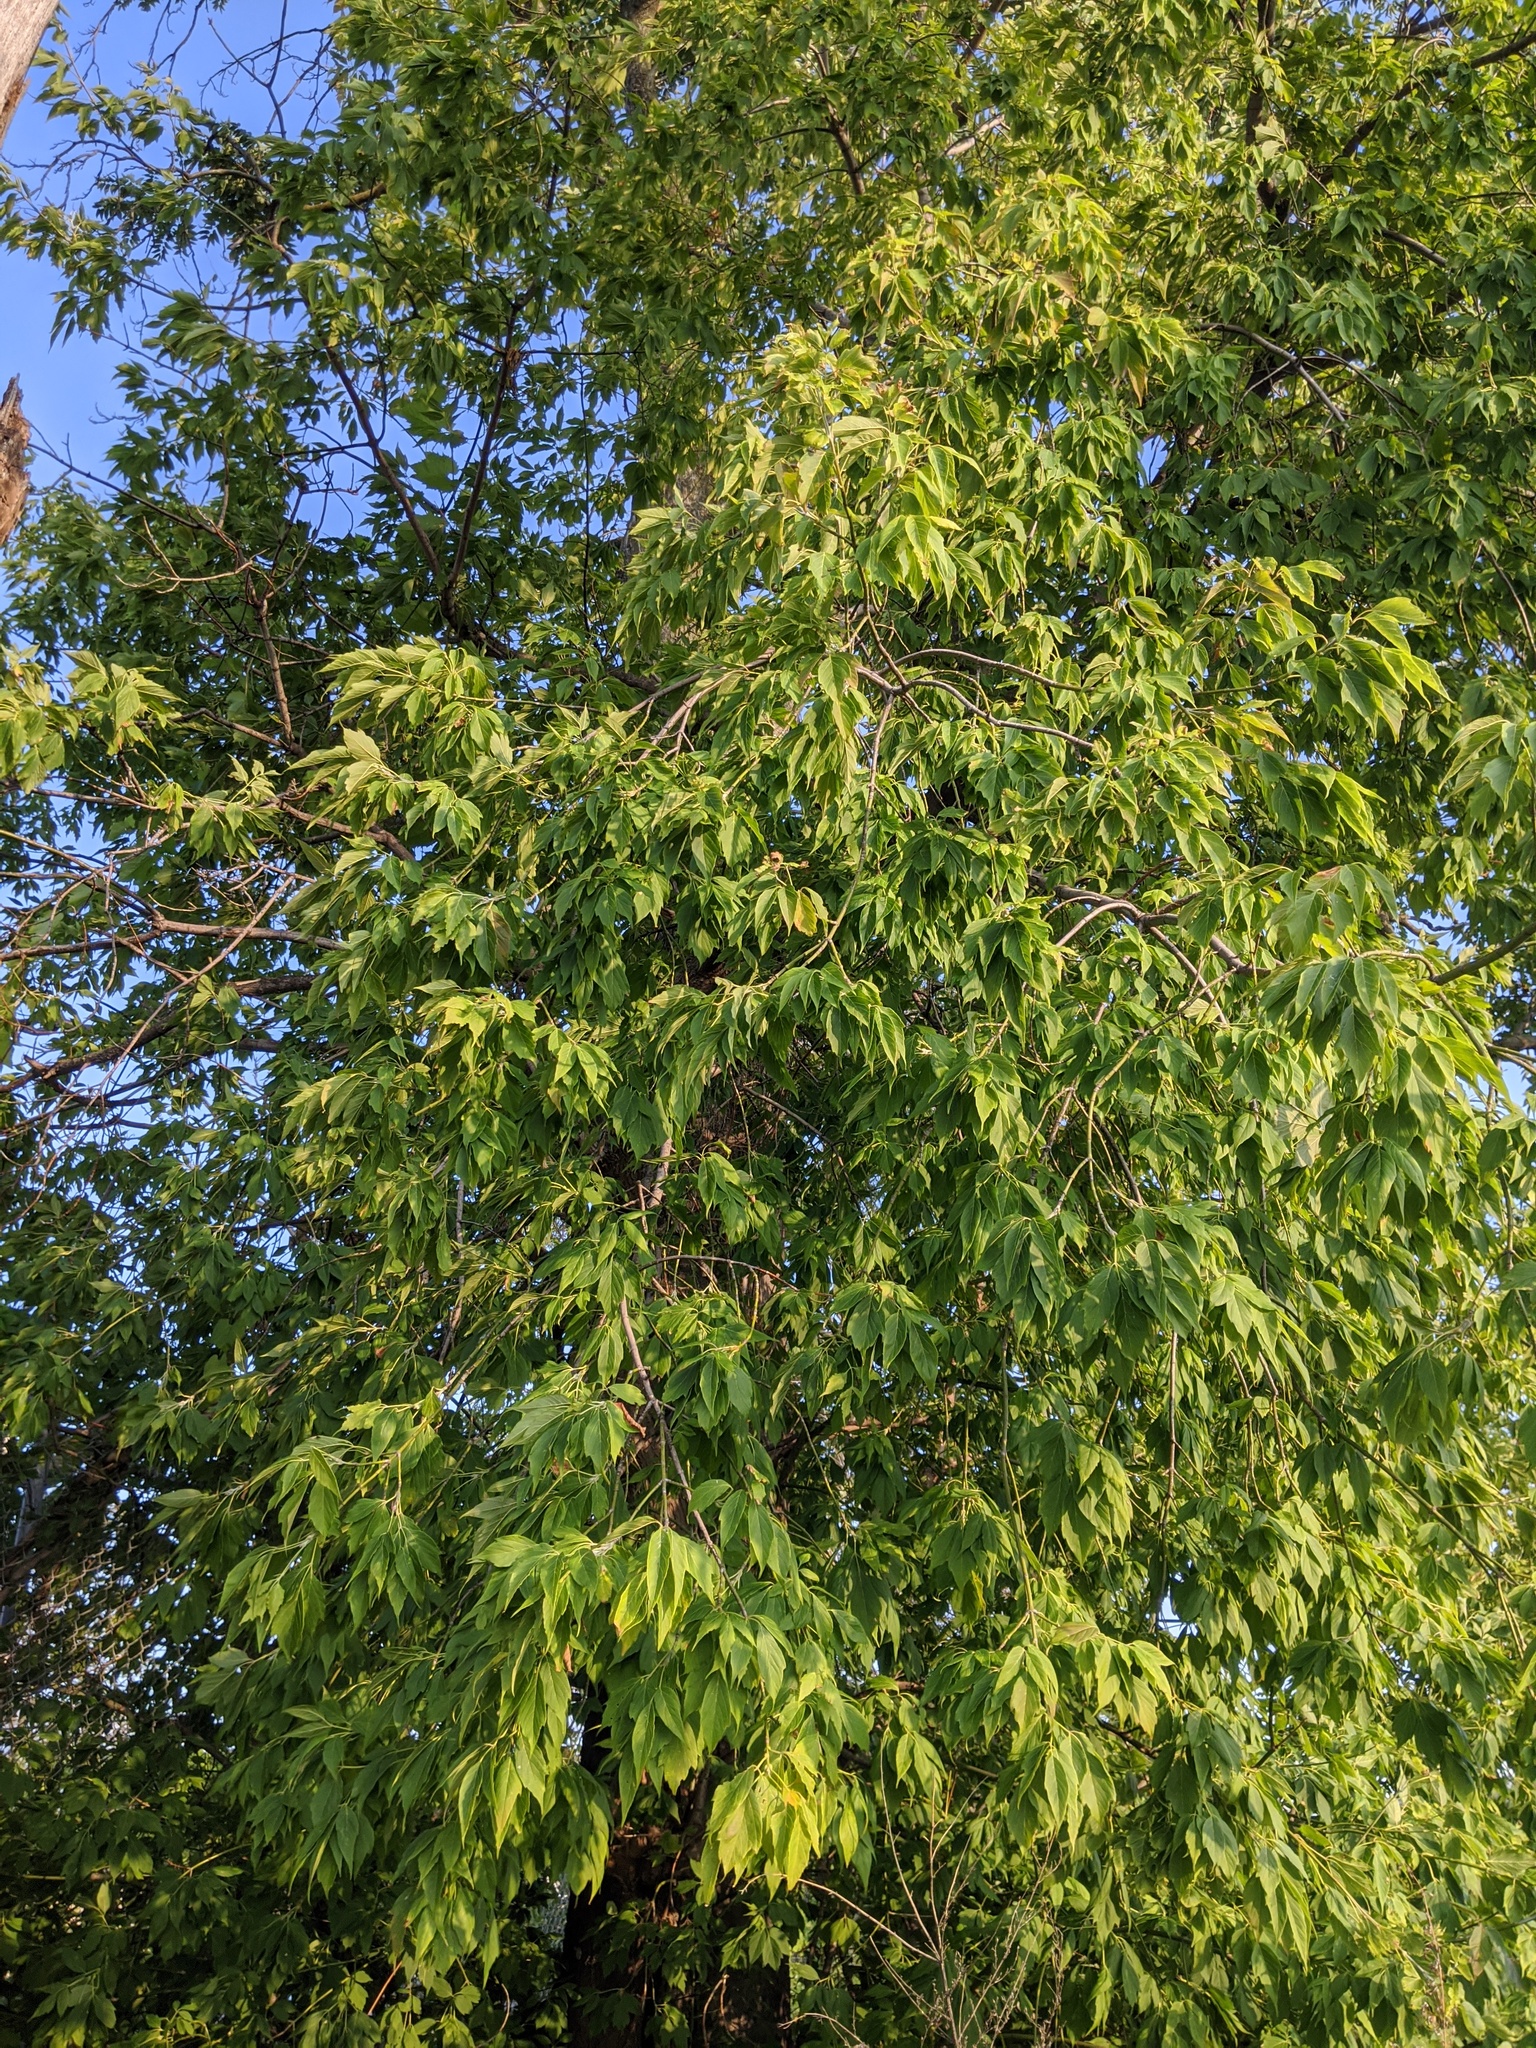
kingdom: Plantae
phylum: Tracheophyta
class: Magnoliopsida
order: Sapindales
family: Sapindaceae
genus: Acer
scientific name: Acer negundo
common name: Ashleaf maple
